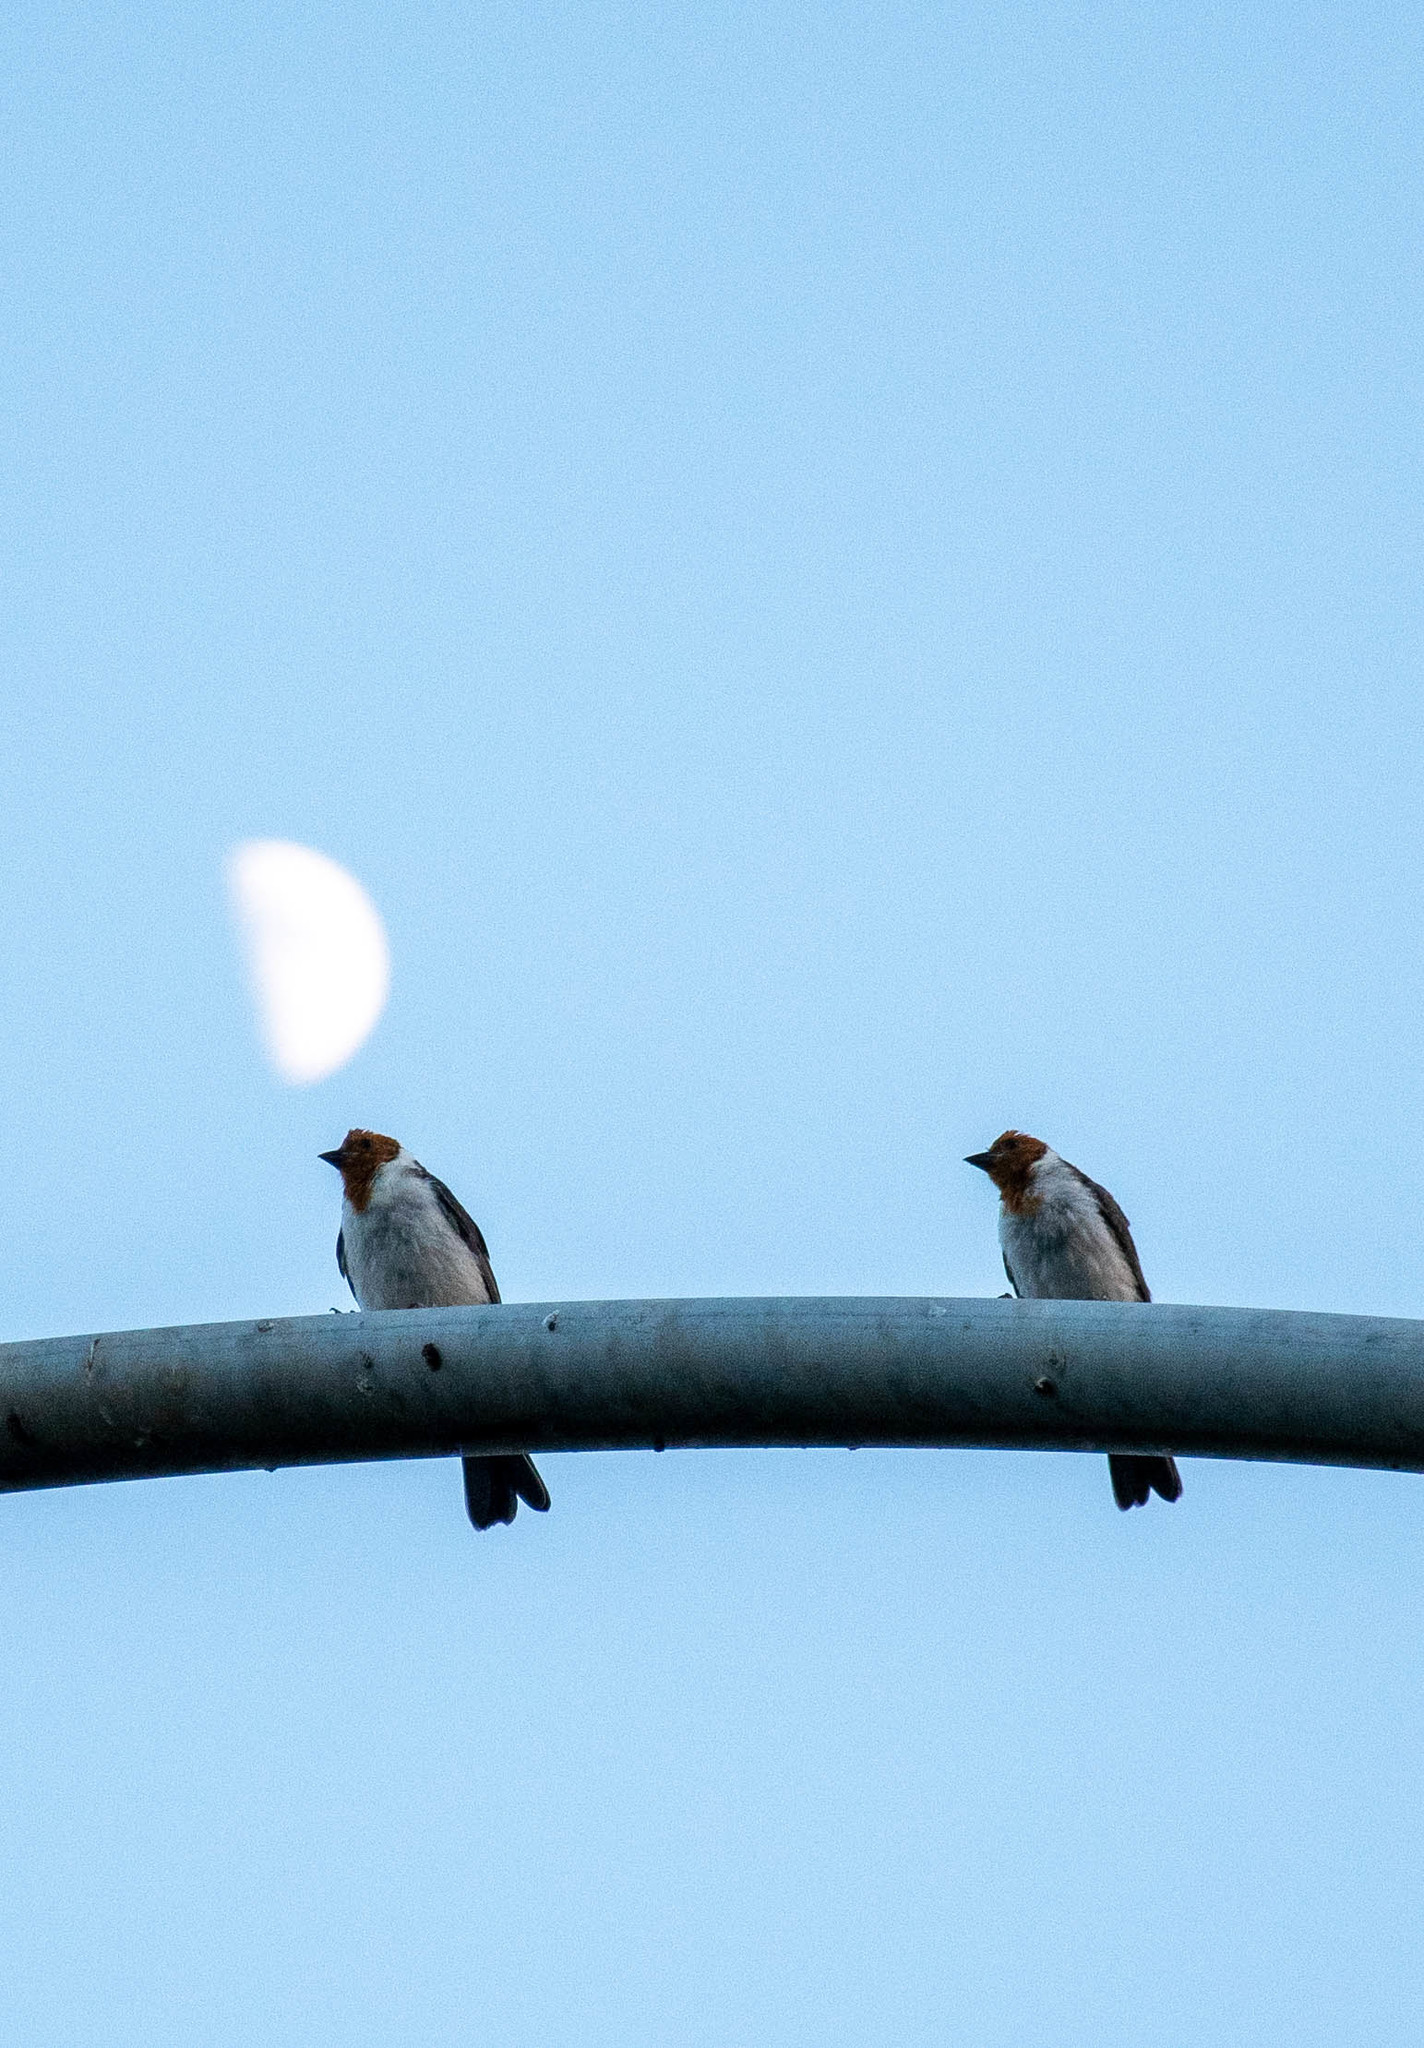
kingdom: Animalia
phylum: Chordata
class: Aves
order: Passeriformes
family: Thraupidae
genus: Paroaria
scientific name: Paroaria coronata
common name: Red-crested cardinal
